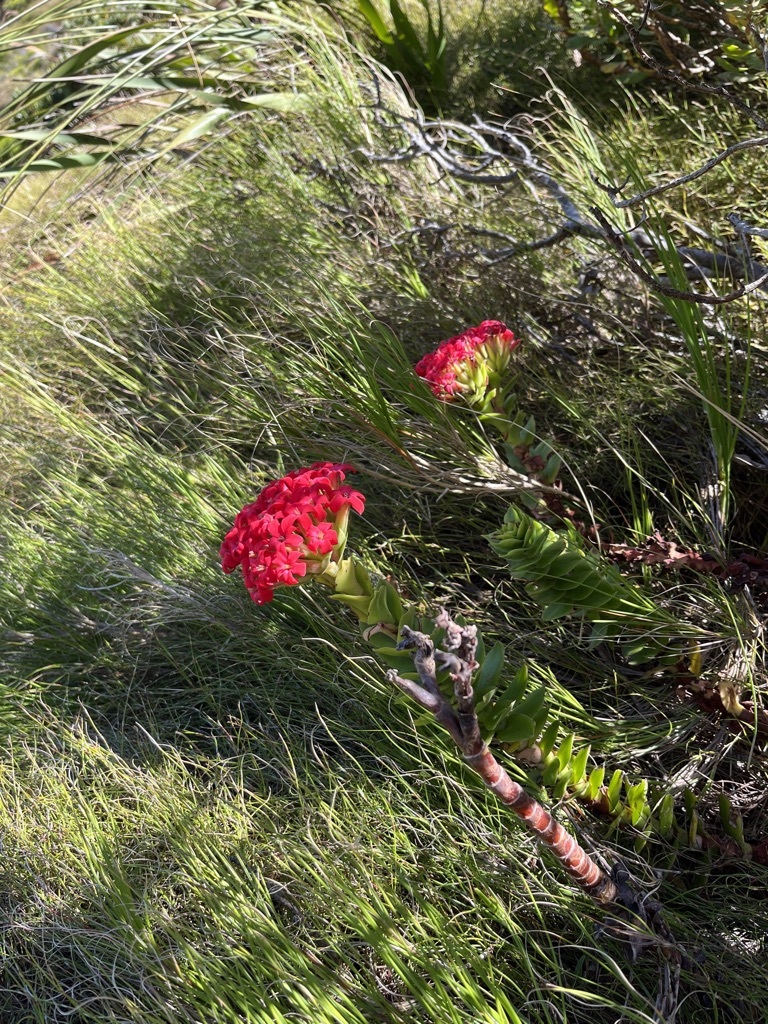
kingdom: Plantae
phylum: Tracheophyta
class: Magnoliopsida
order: Saxifragales
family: Crassulaceae
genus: Crassula
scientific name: Crassula coccinea
